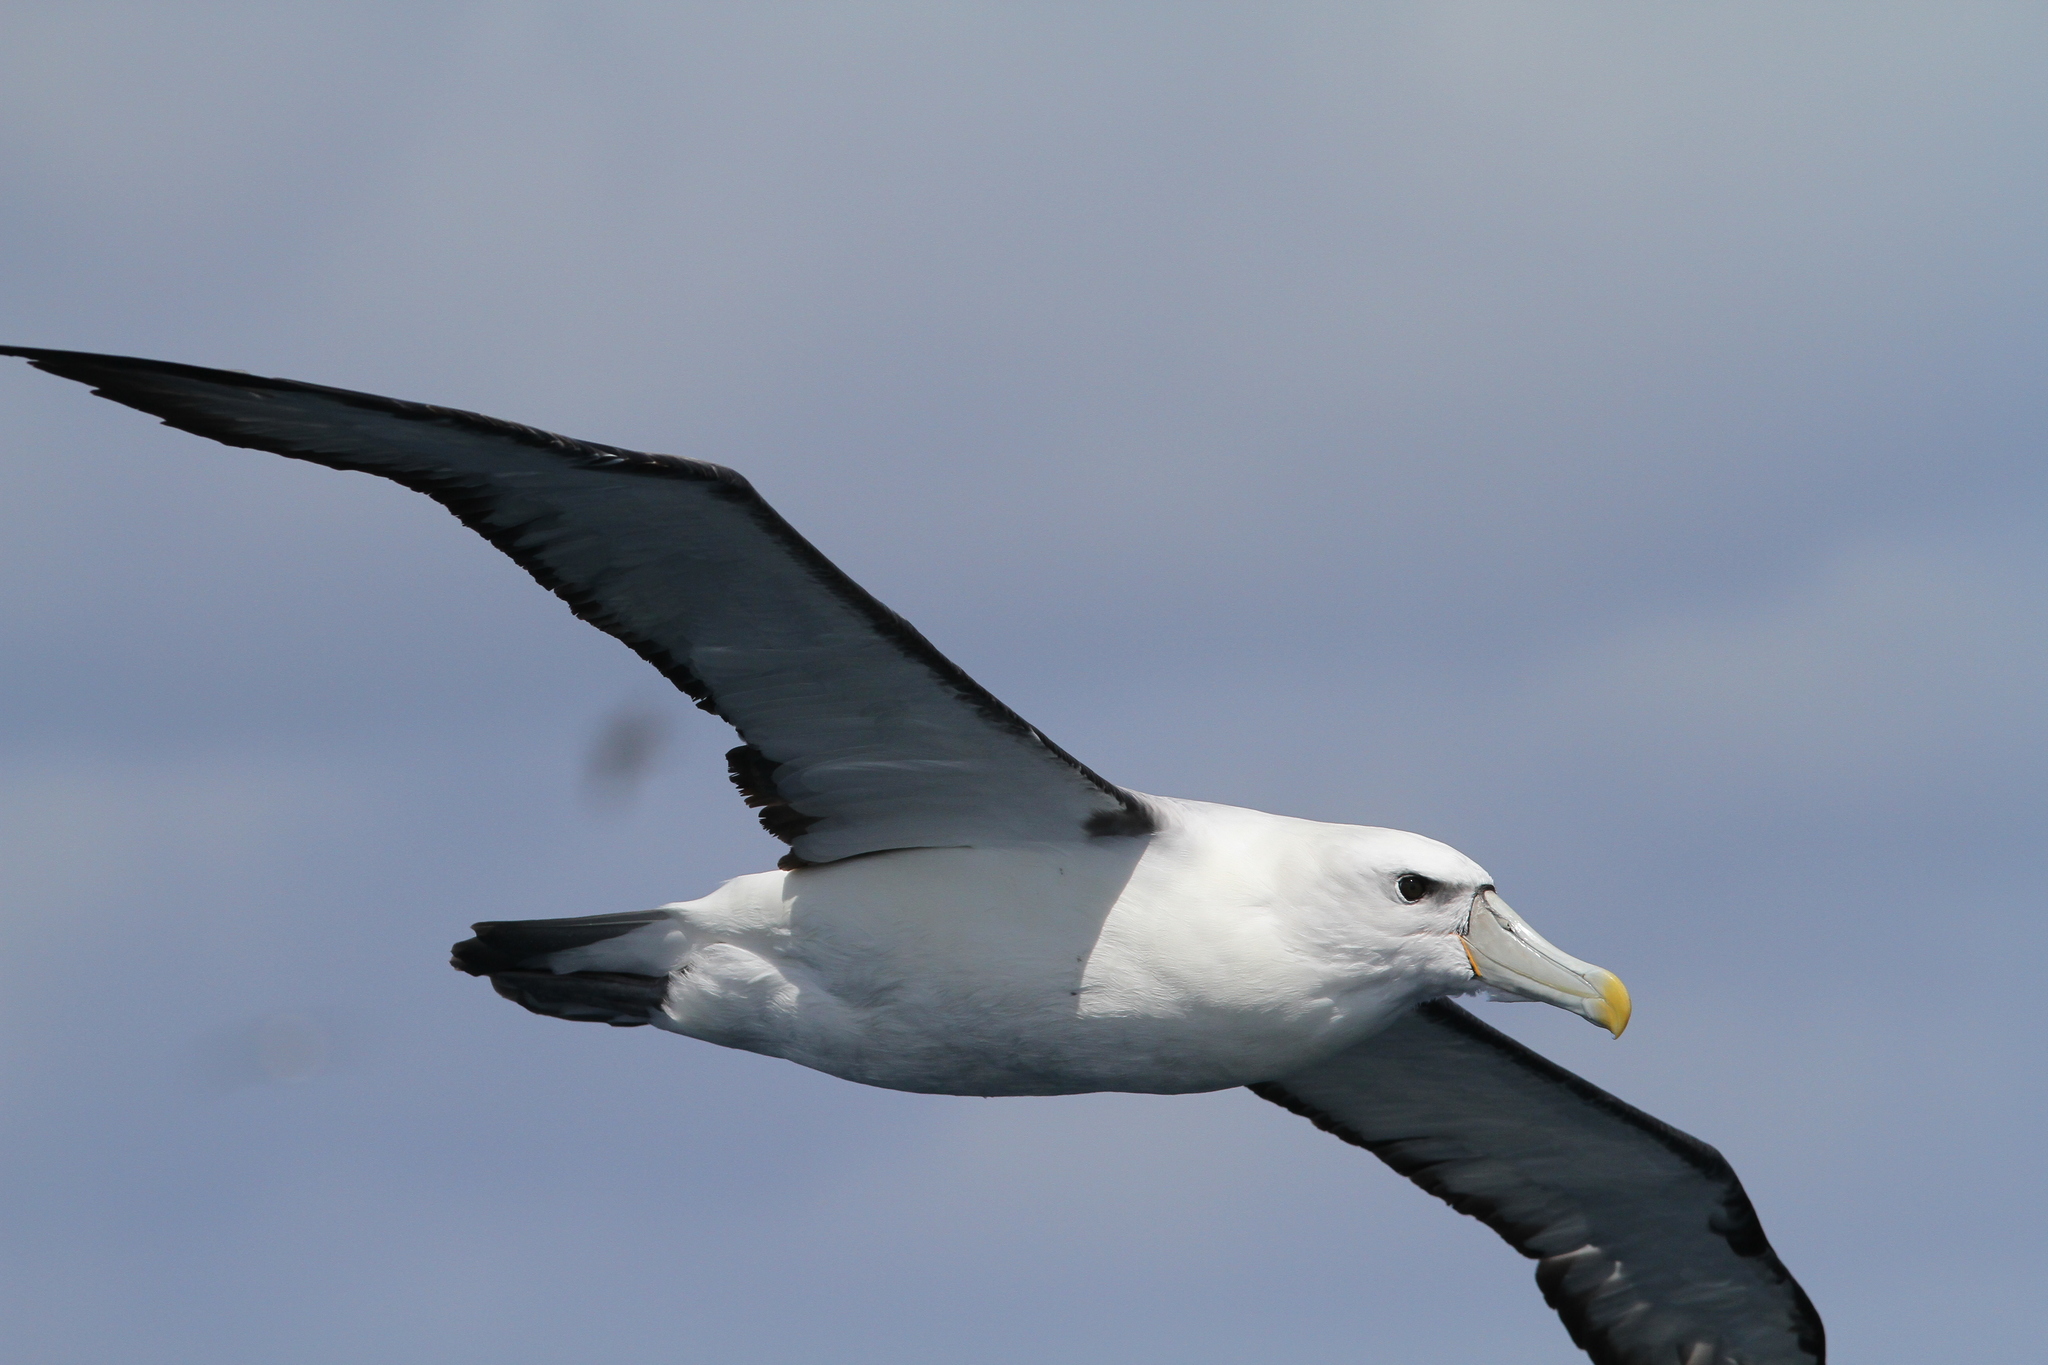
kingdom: Animalia
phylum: Chordata
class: Aves
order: Procellariiformes
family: Diomedeidae
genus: Thalassarche
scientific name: Thalassarche cauta
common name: Shy albatross
